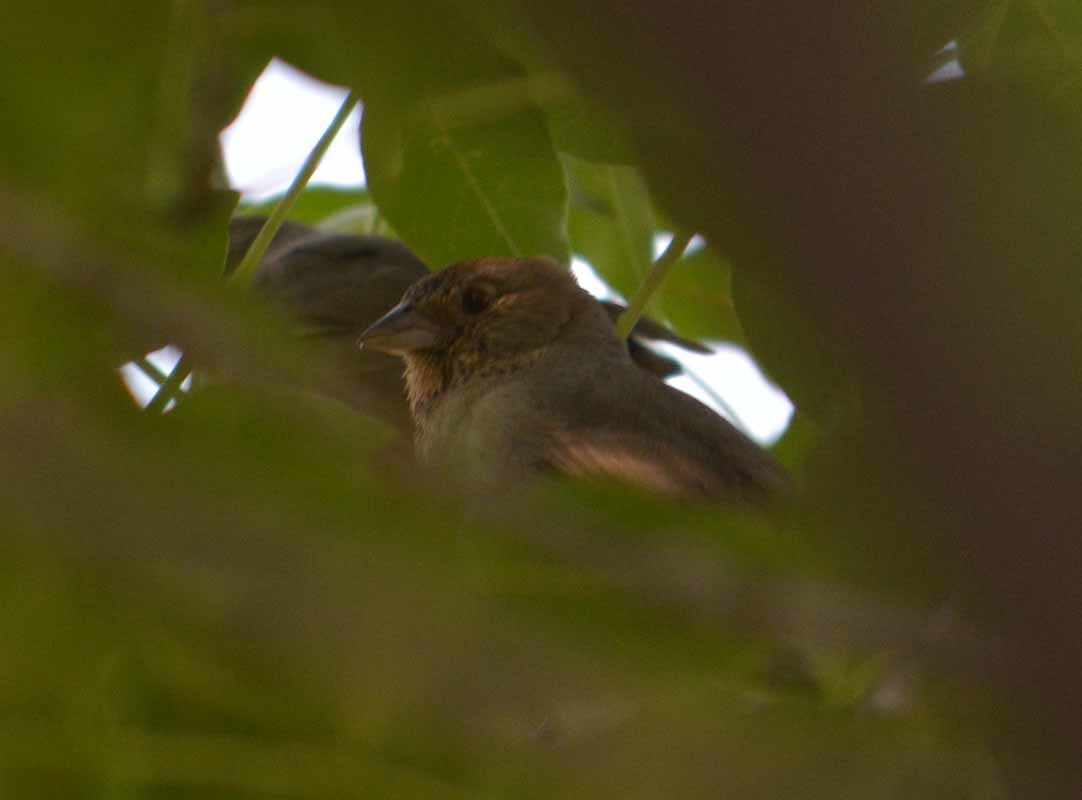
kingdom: Animalia
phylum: Chordata
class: Aves
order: Passeriformes
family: Passerellidae
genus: Melozone
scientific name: Melozone fusca
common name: Canyon towhee
